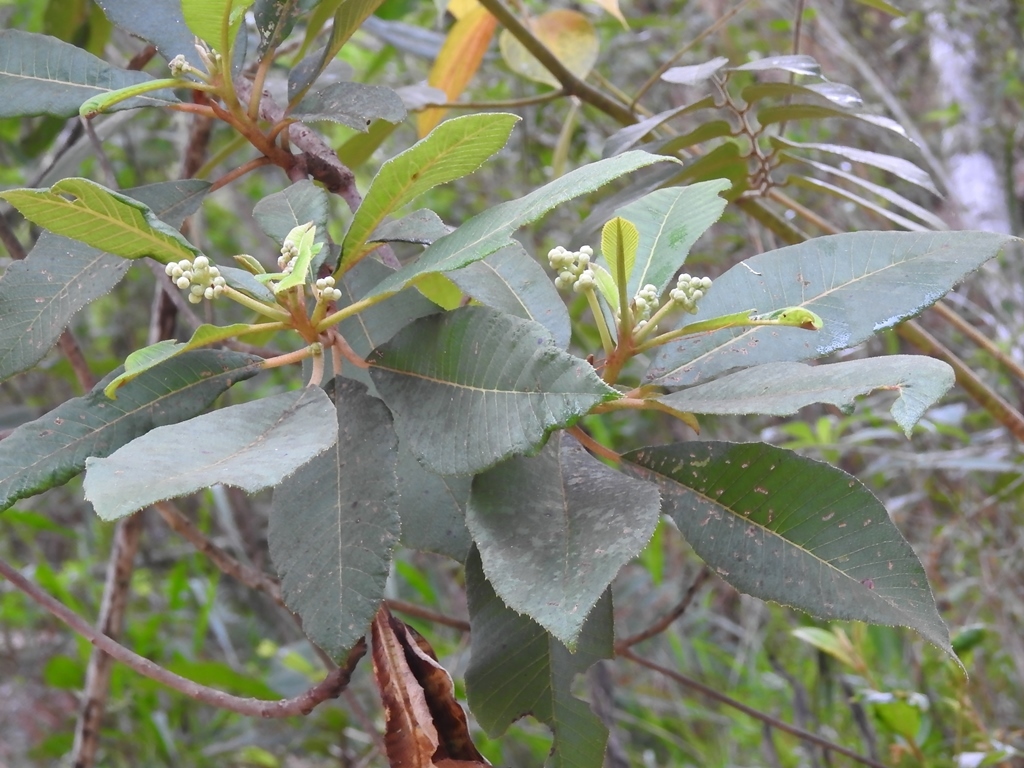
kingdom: Plantae
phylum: Tracheophyta
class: Magnoliopsida
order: Ericales
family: Actinidiaceae
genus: Saurauia
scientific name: Saurauia scabrida
